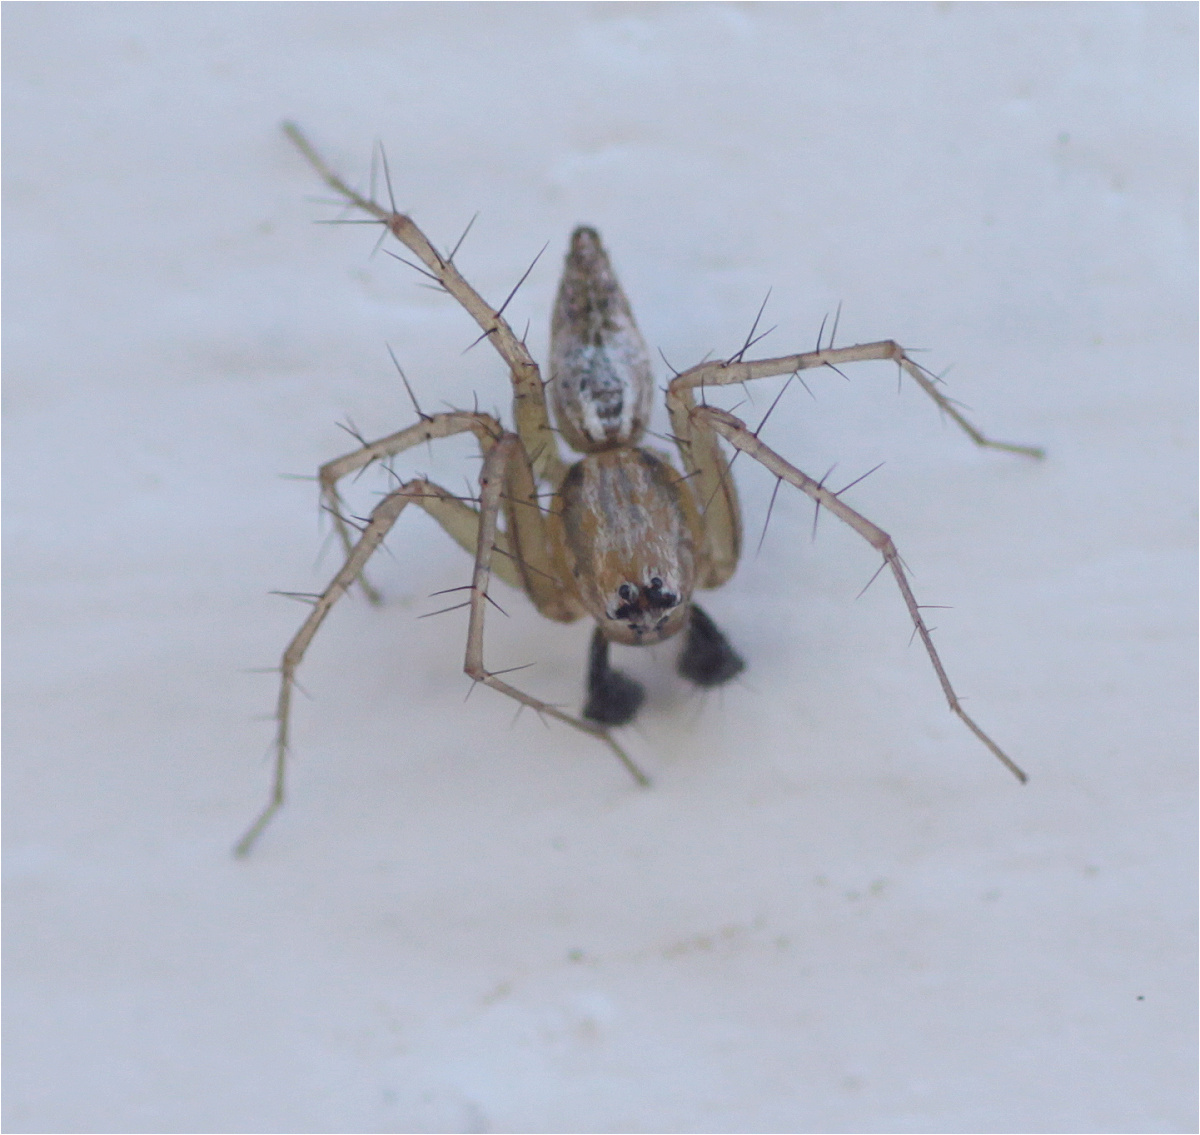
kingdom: Animalia
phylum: Arthropoda
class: Arachnida
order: Araneae
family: Oxyopidae
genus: Oxyopes
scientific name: Oxyopes salticus
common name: Lynx spiders
